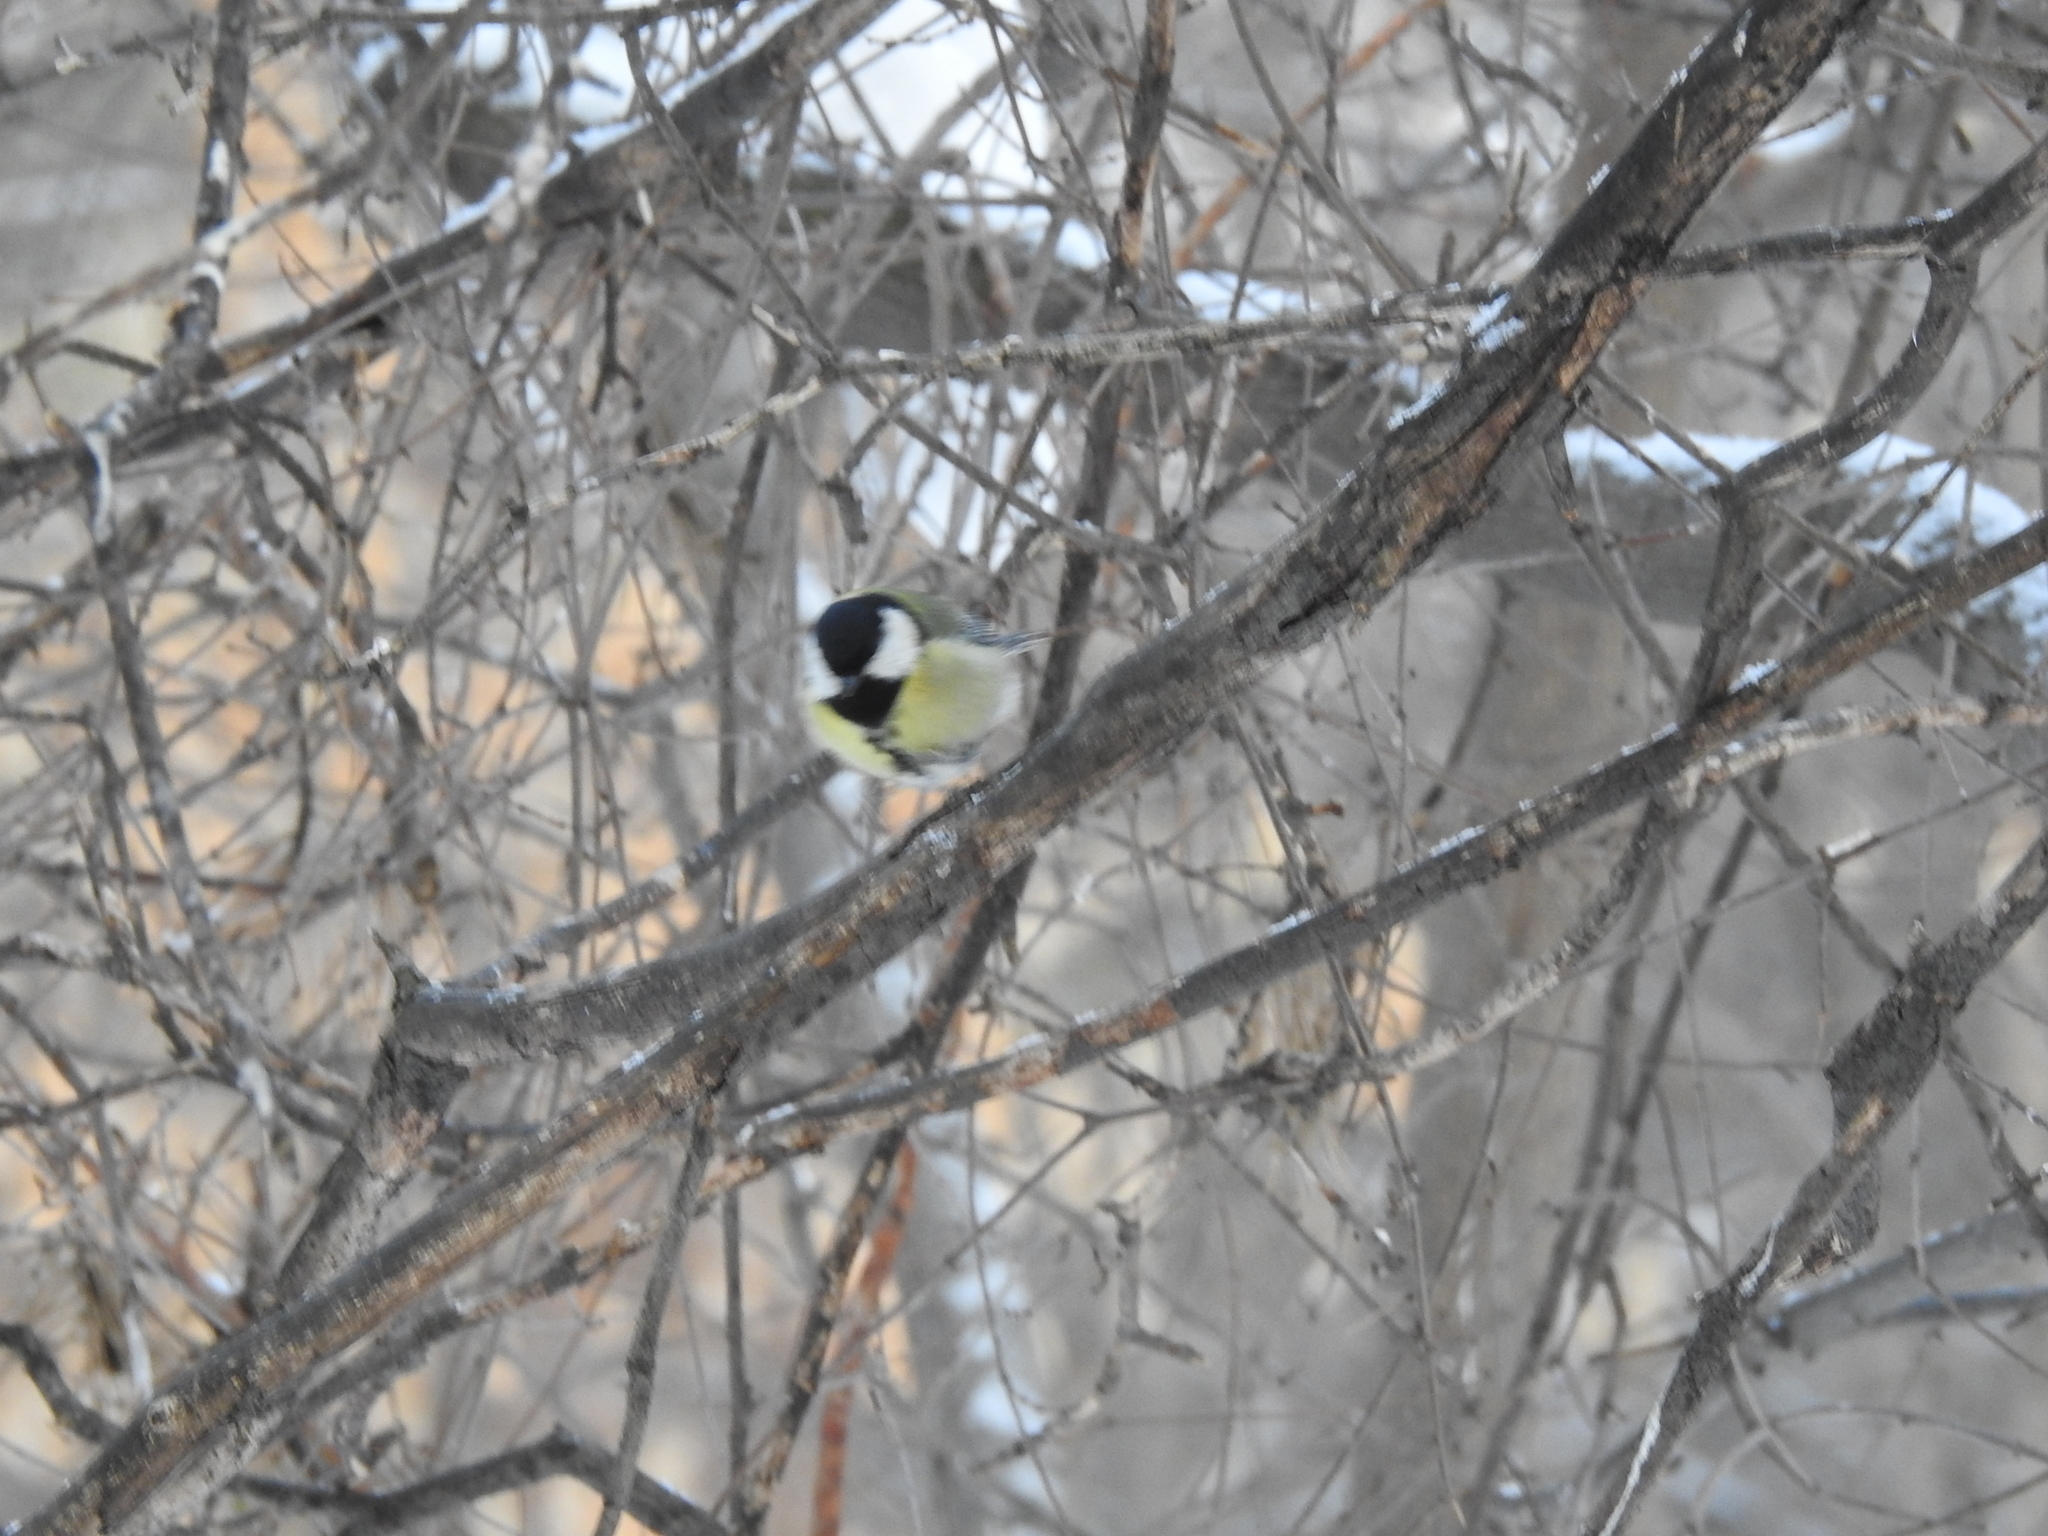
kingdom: Animalia
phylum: Chordata
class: Aves
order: Passeriformes
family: Paridae
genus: Parus
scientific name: Parus major
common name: Great tit
